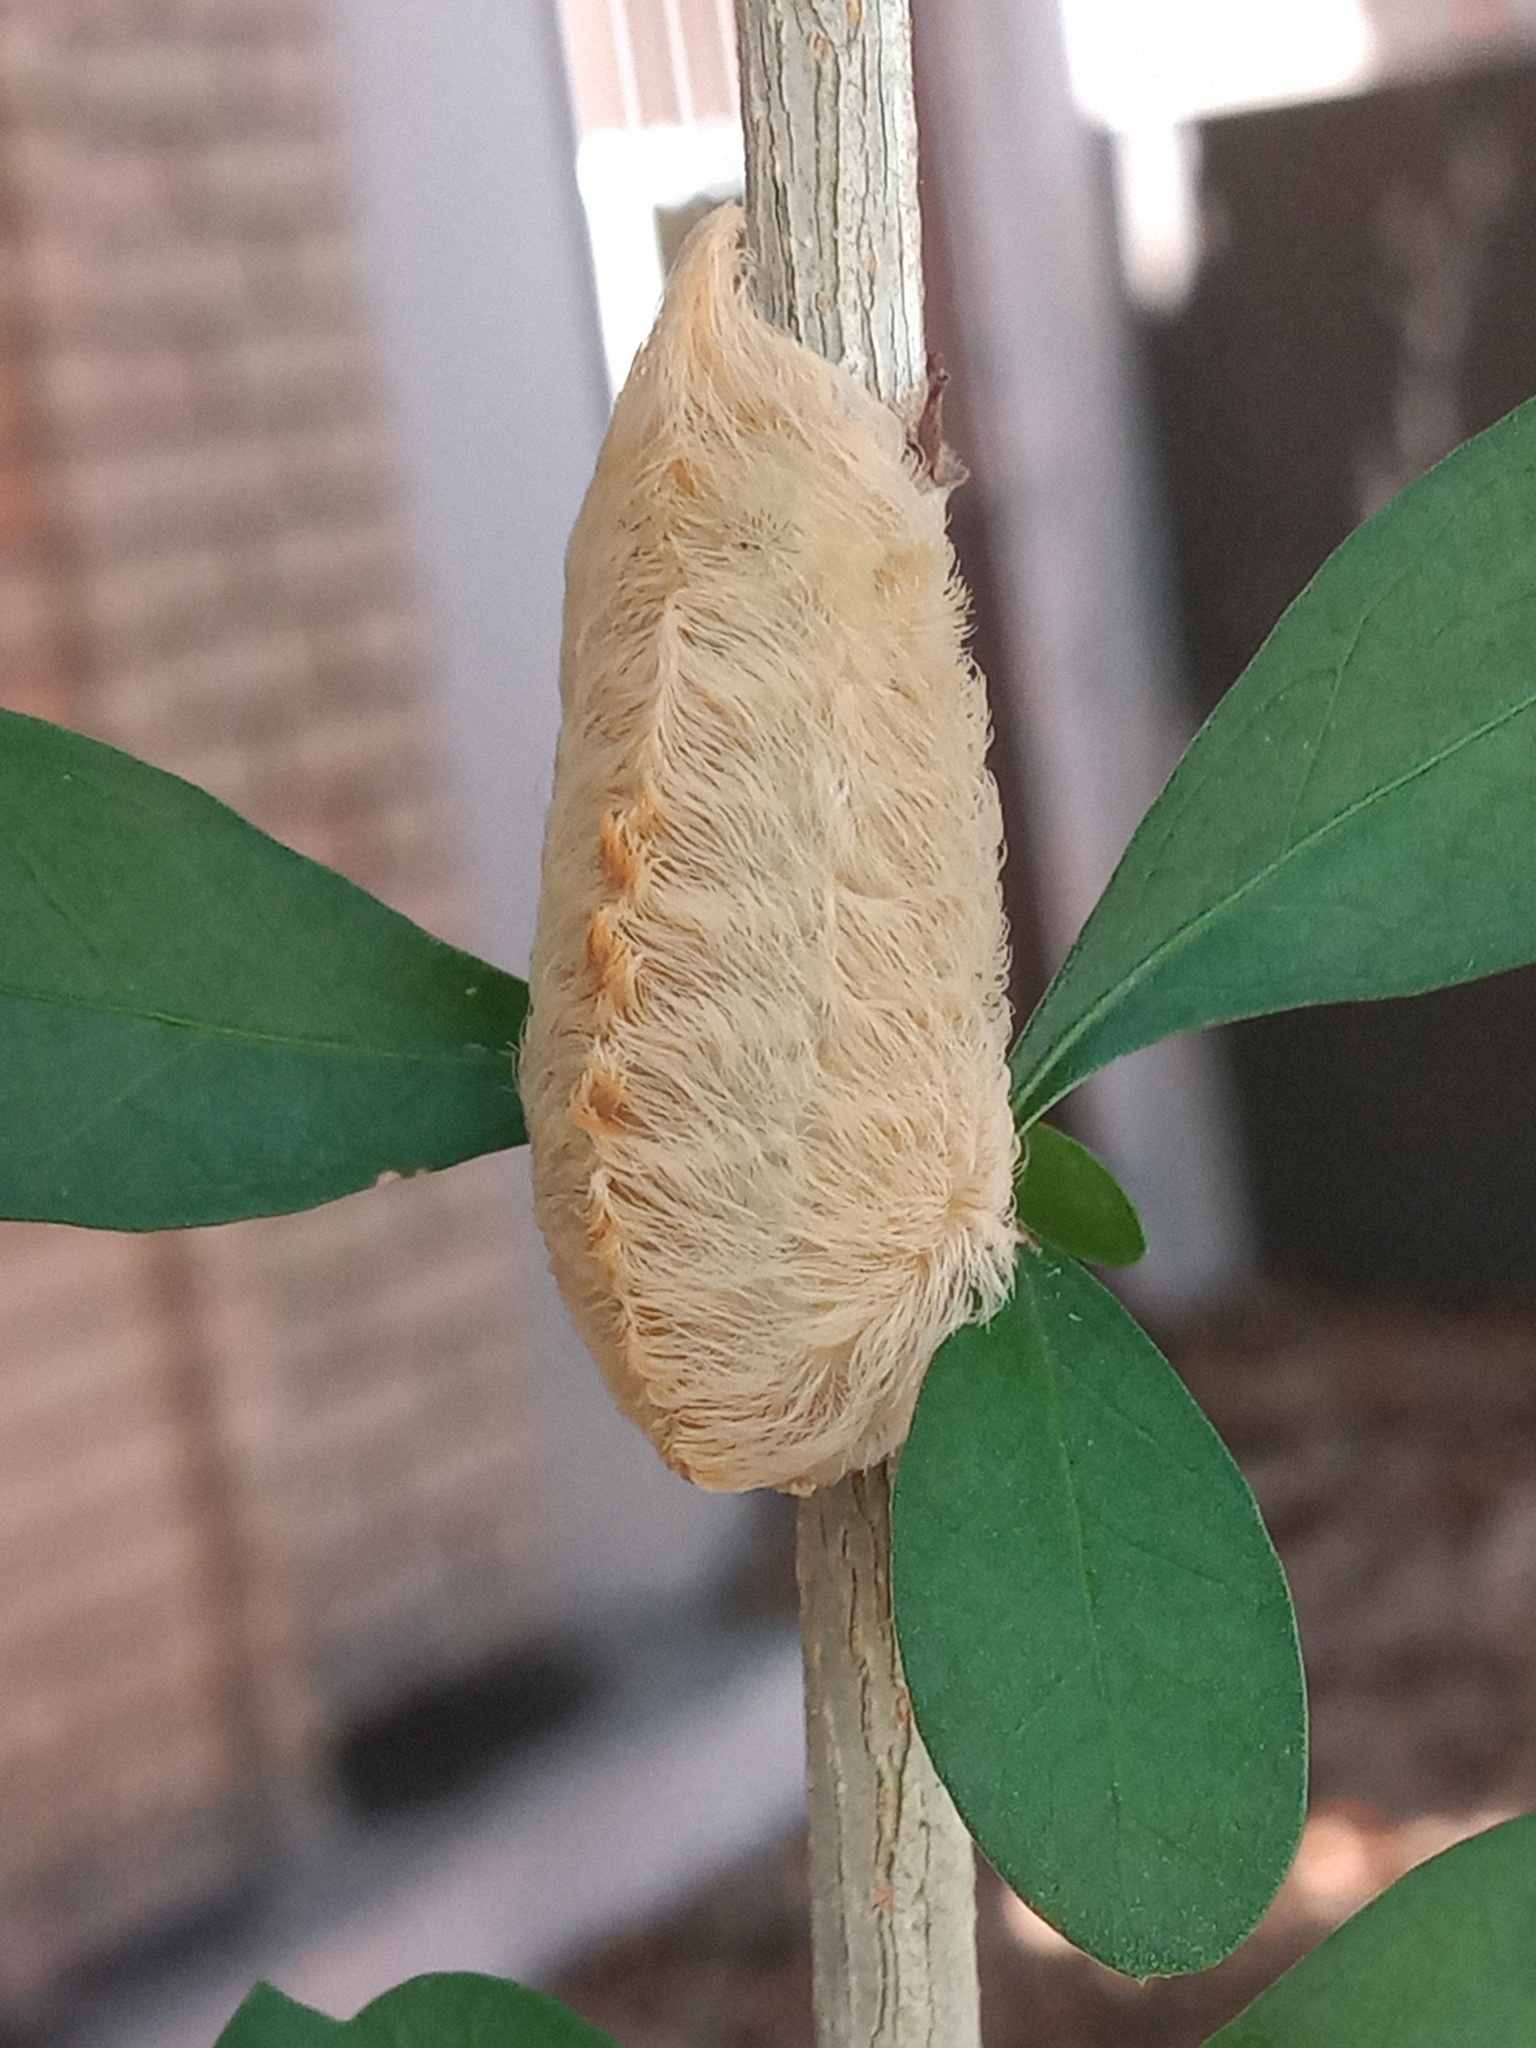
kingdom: Animalia
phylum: Arthropoda
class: Insecta
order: Lepidoptera
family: Megalopygidae
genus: Megalopyge
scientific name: Megalopyge opercularis
